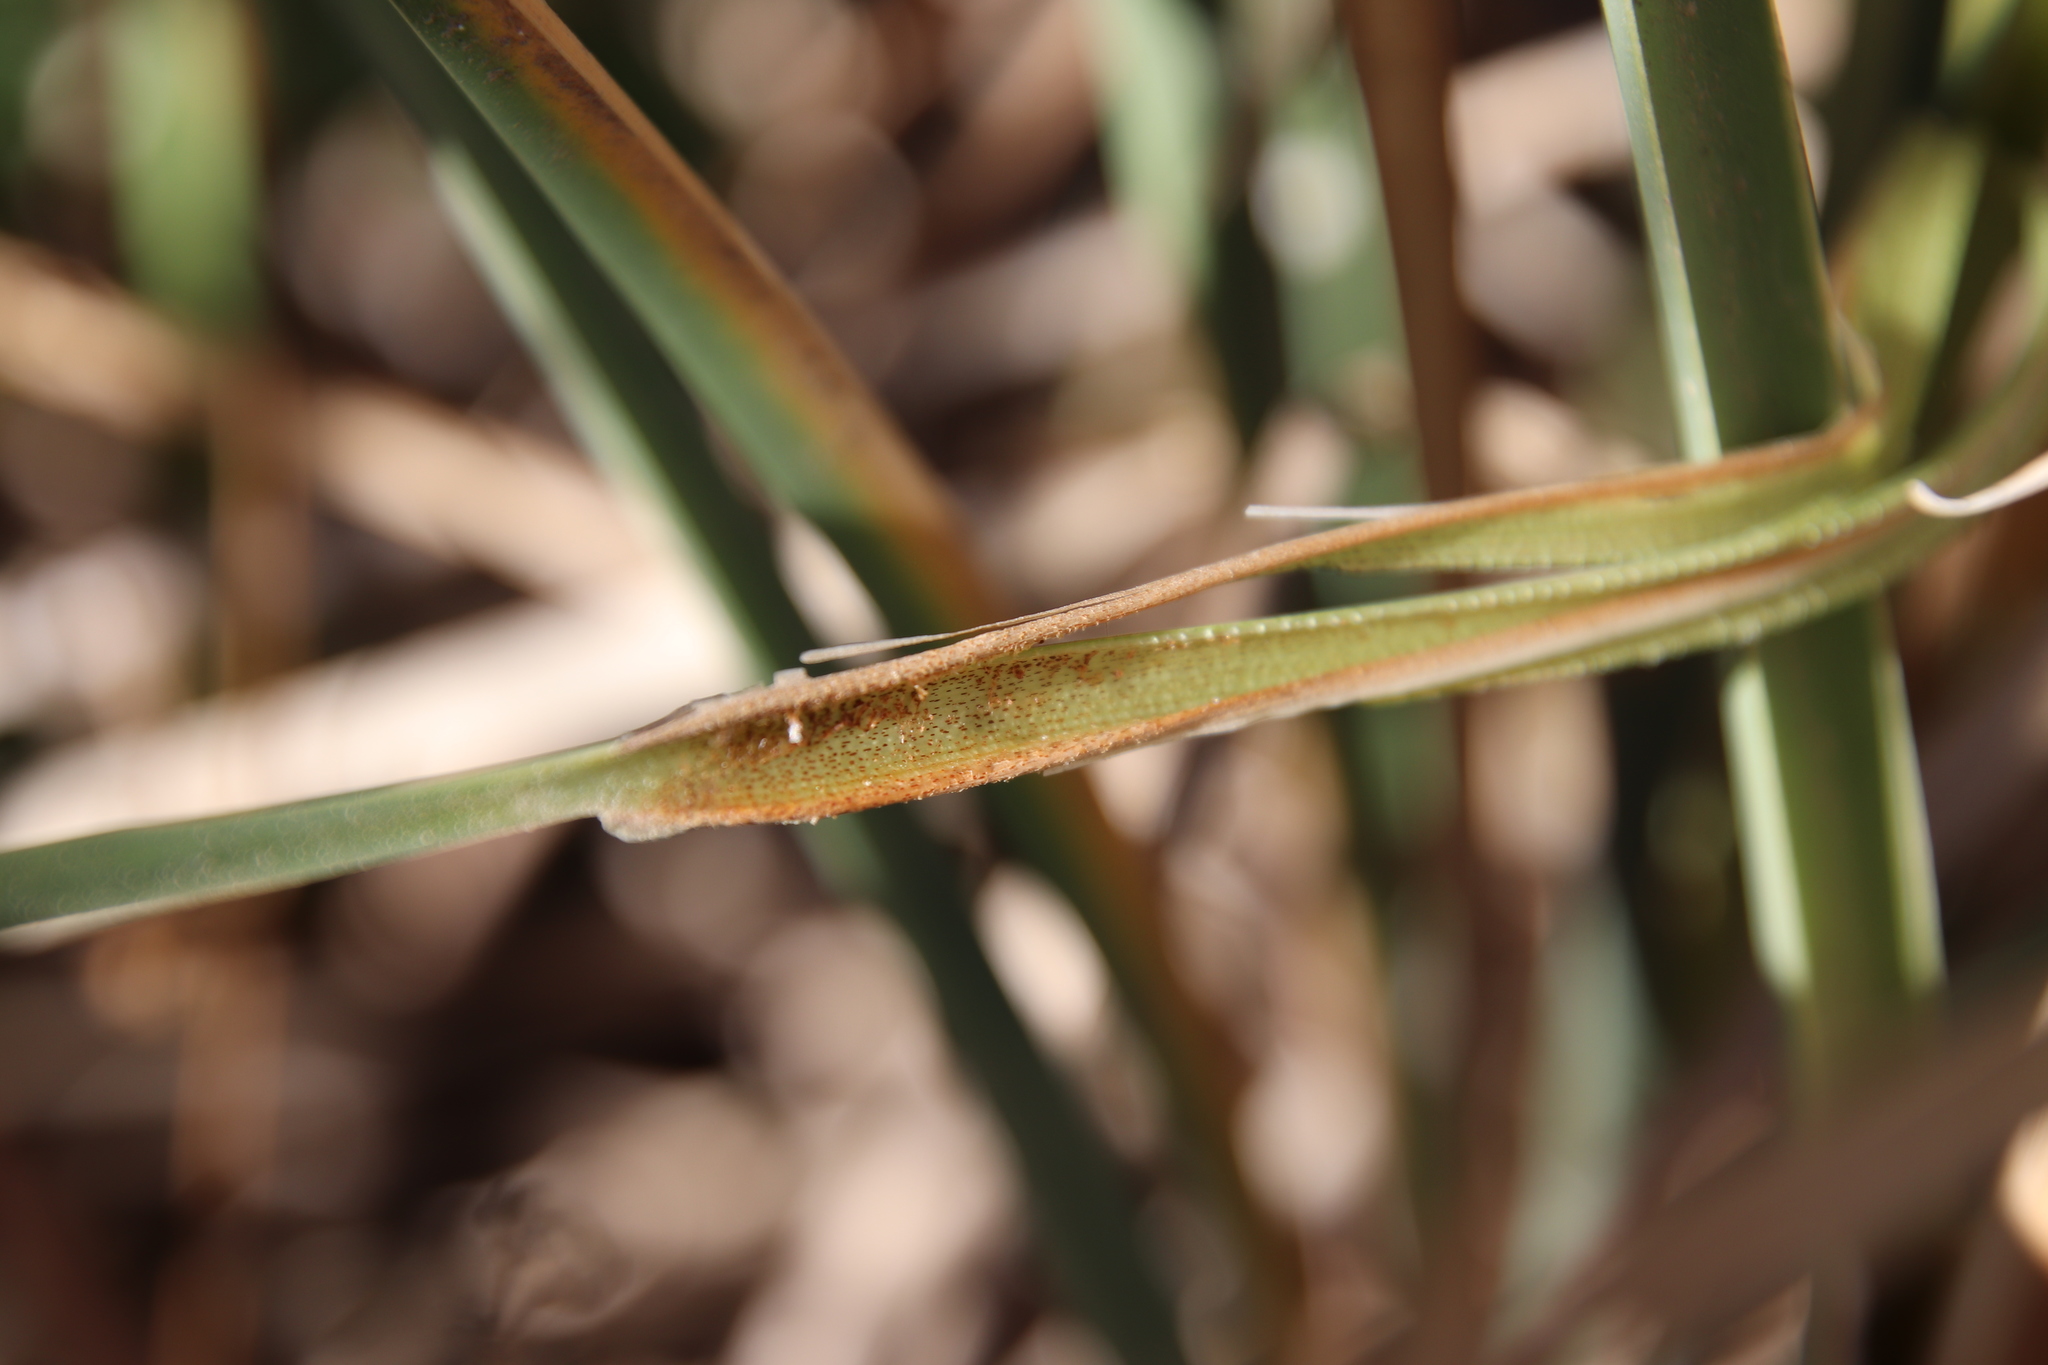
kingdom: Plantae
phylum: Tracheophyta
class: Liliopsida
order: Poales
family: Typhaceae
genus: Typha
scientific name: Typha domingensis
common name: Southern cattail
